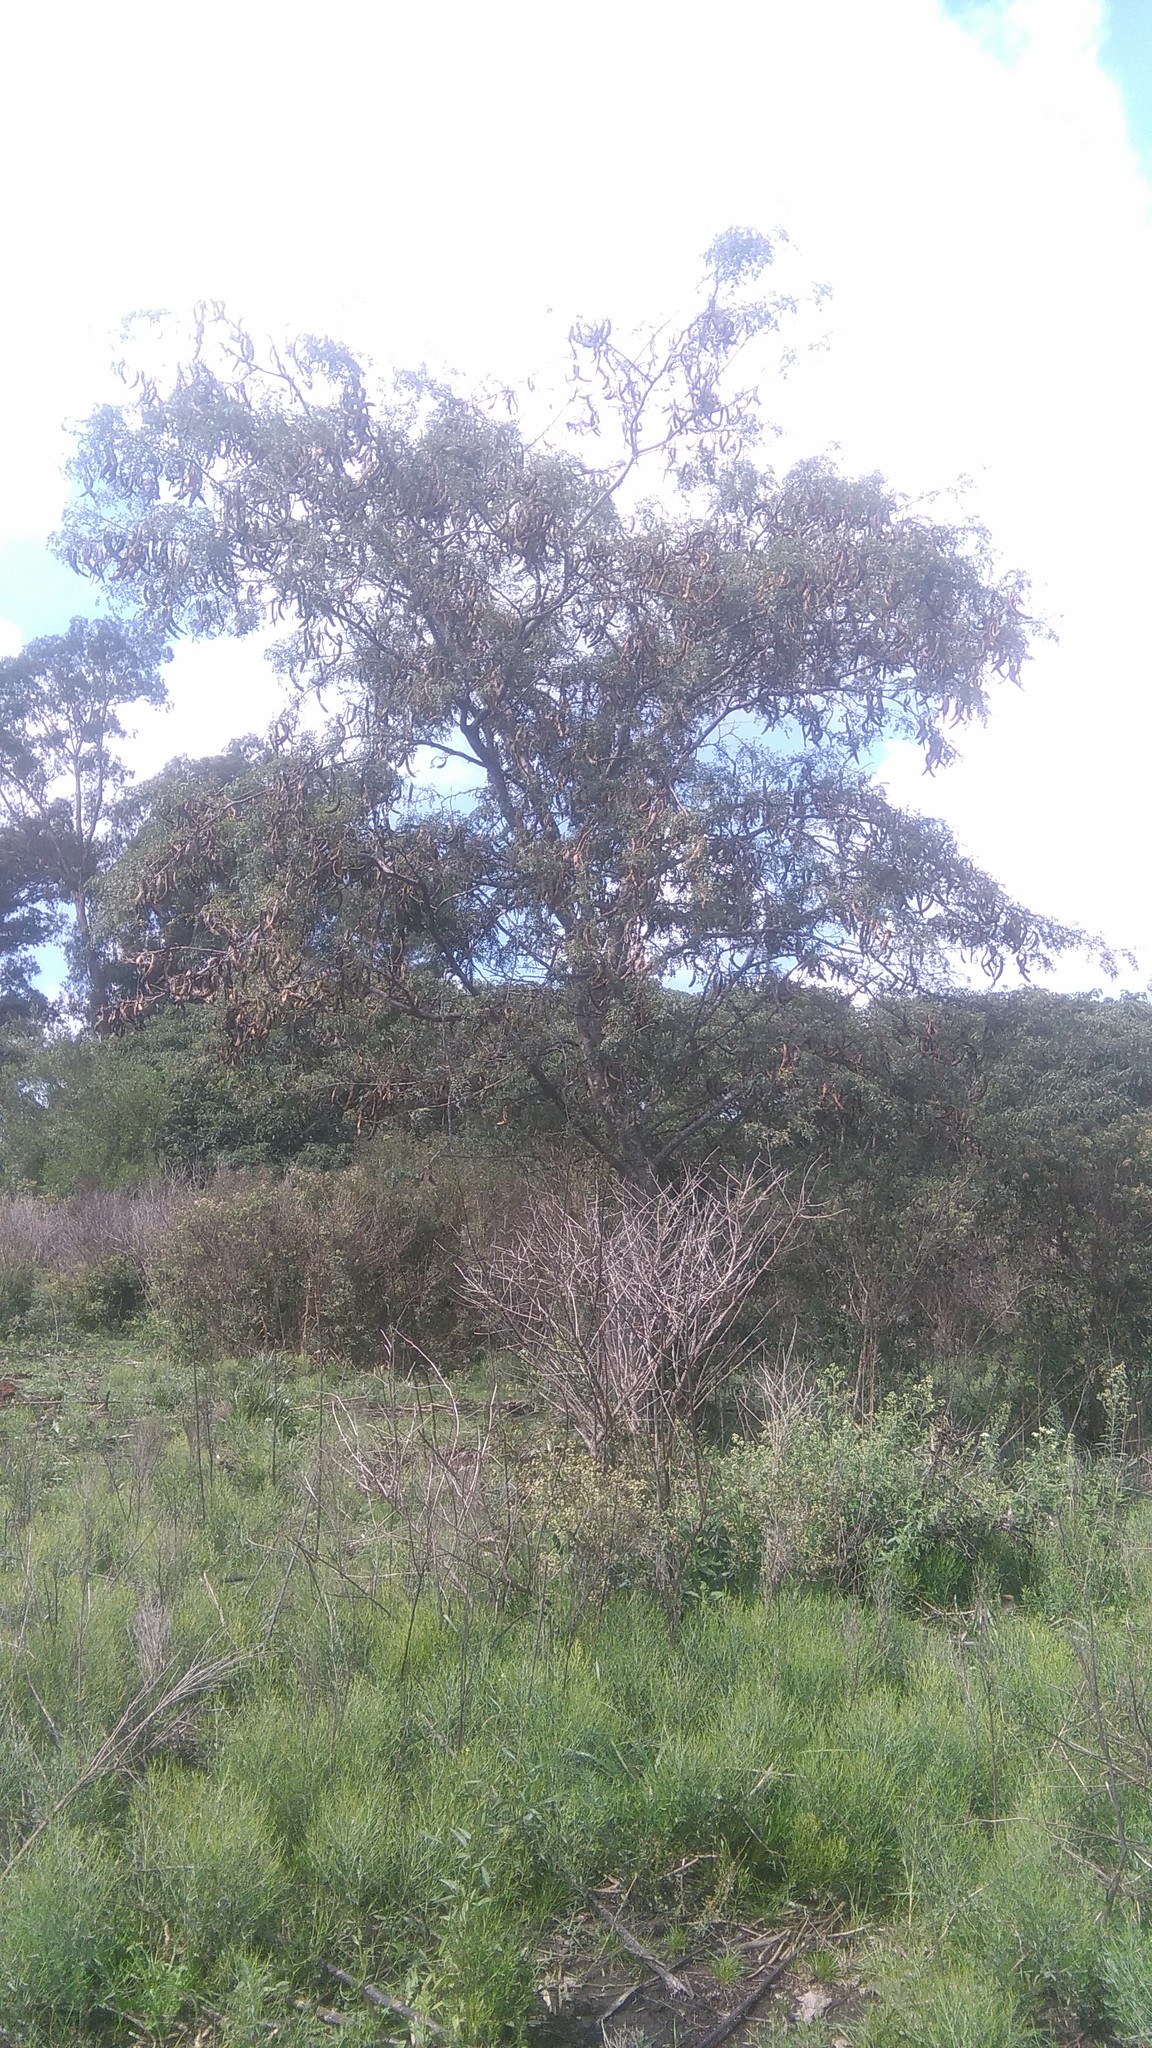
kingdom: Plantae
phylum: Tracheophyta
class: Magnoliopsida
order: Fabales
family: Fabaceae
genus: Gleditsia
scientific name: Gleditsia triacanthos
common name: Common honeylocust
